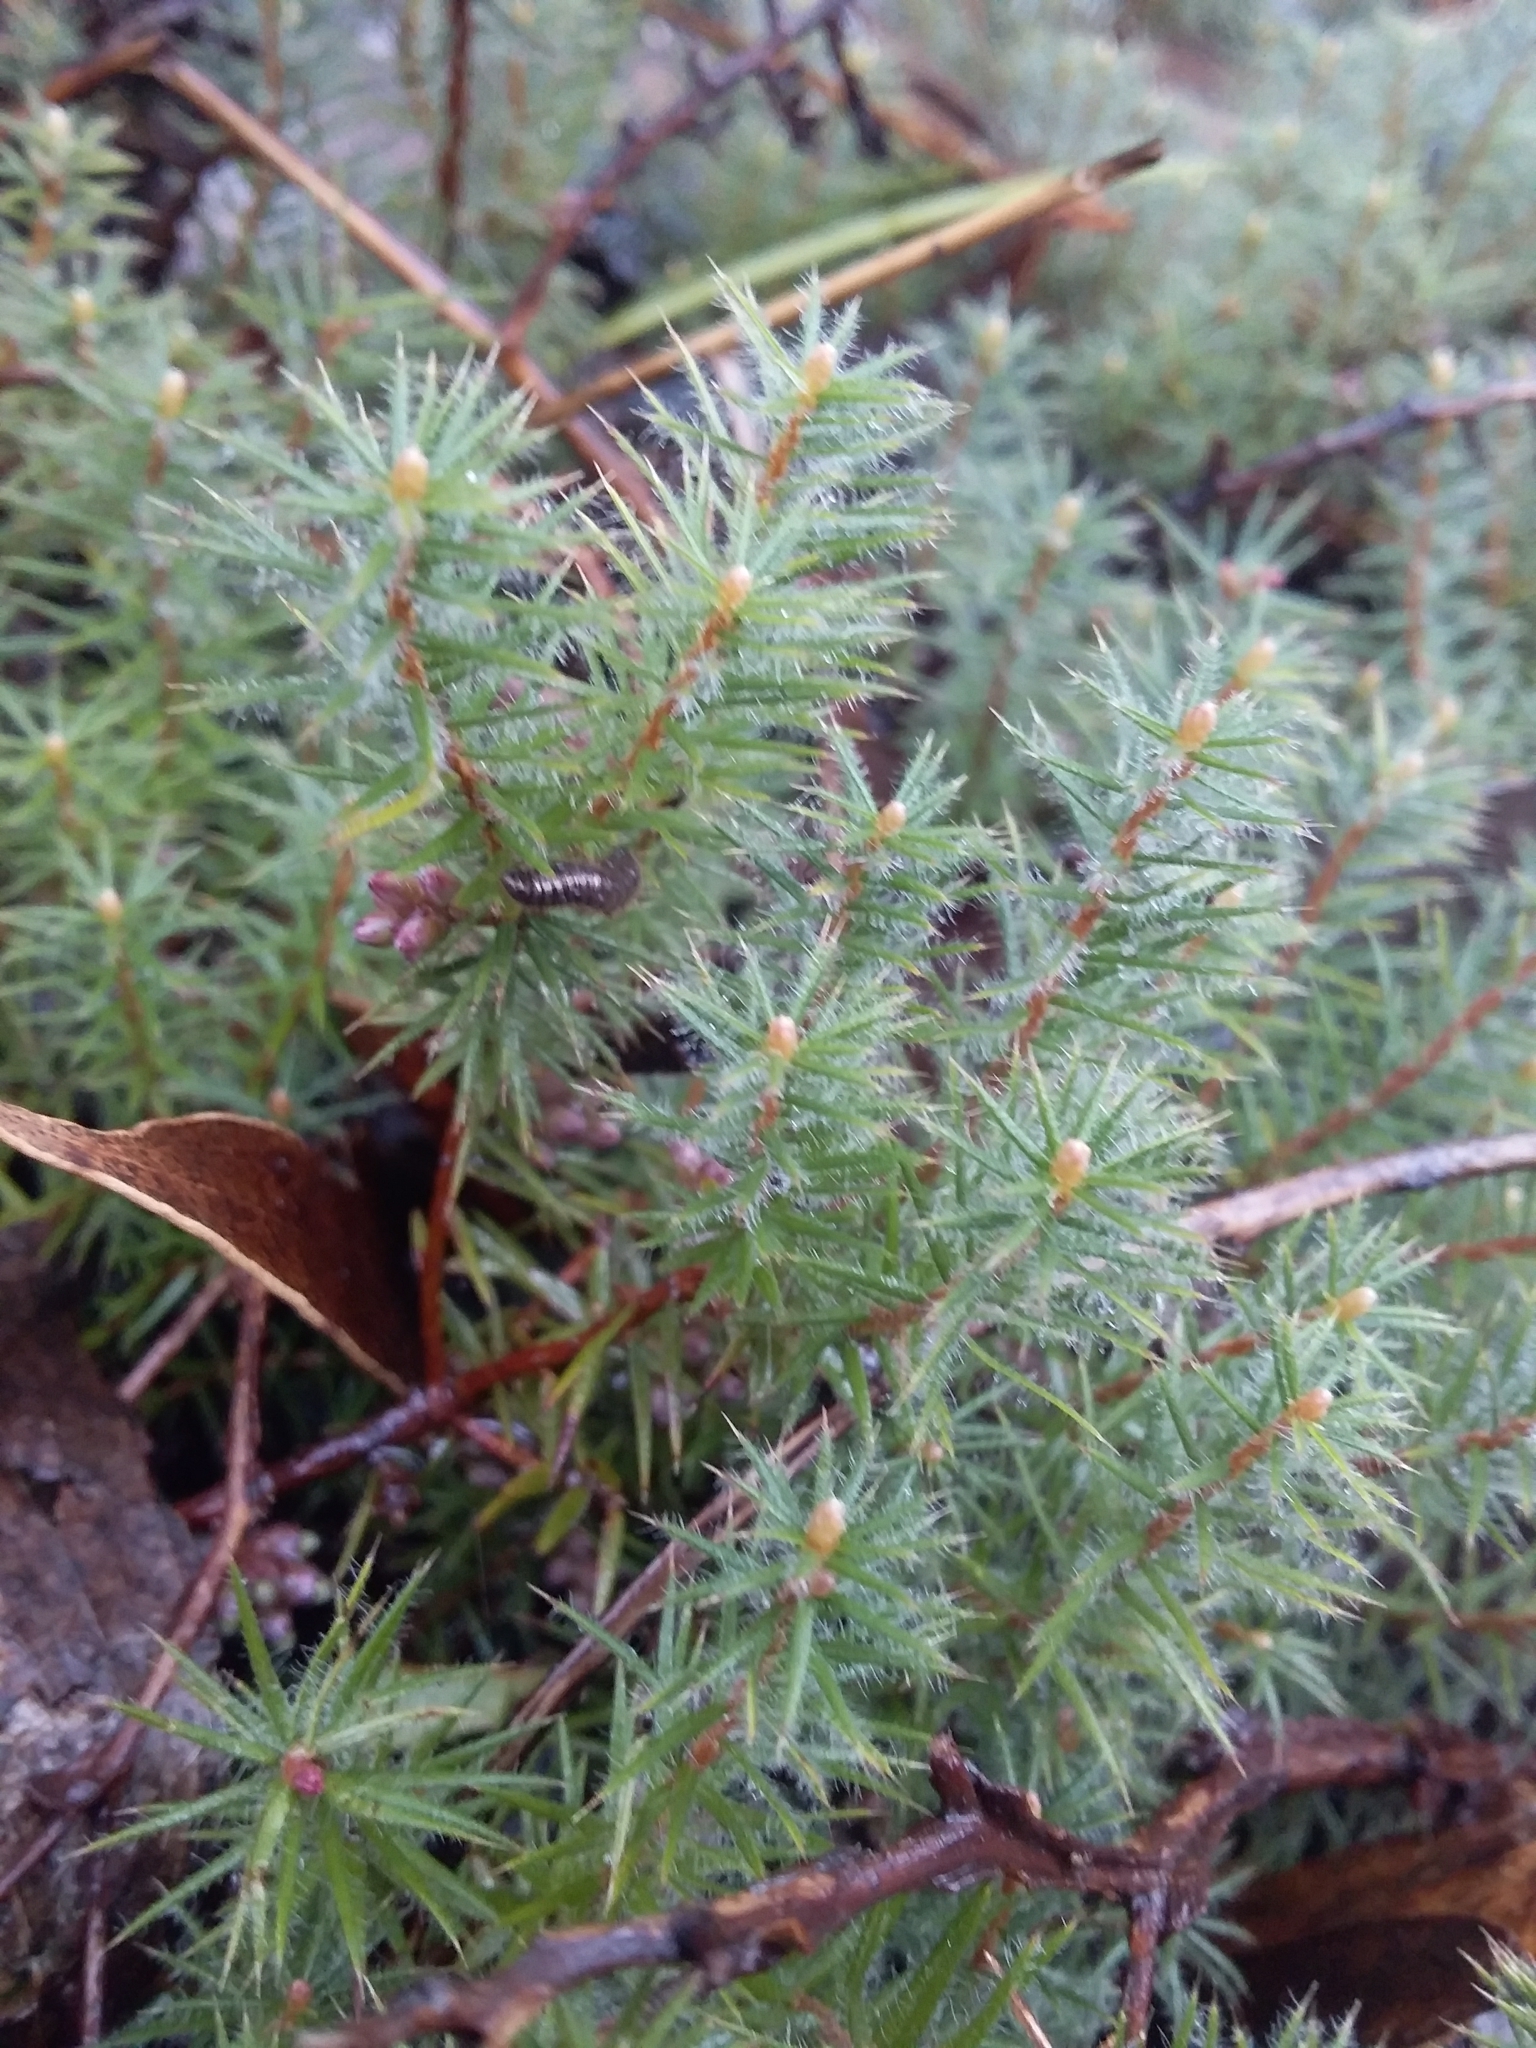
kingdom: Plantae
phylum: Tracheophyta
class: Magnoliopsida
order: Ericales
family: Ericaceae
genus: Acrotriche
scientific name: Acrotriche serrulata
